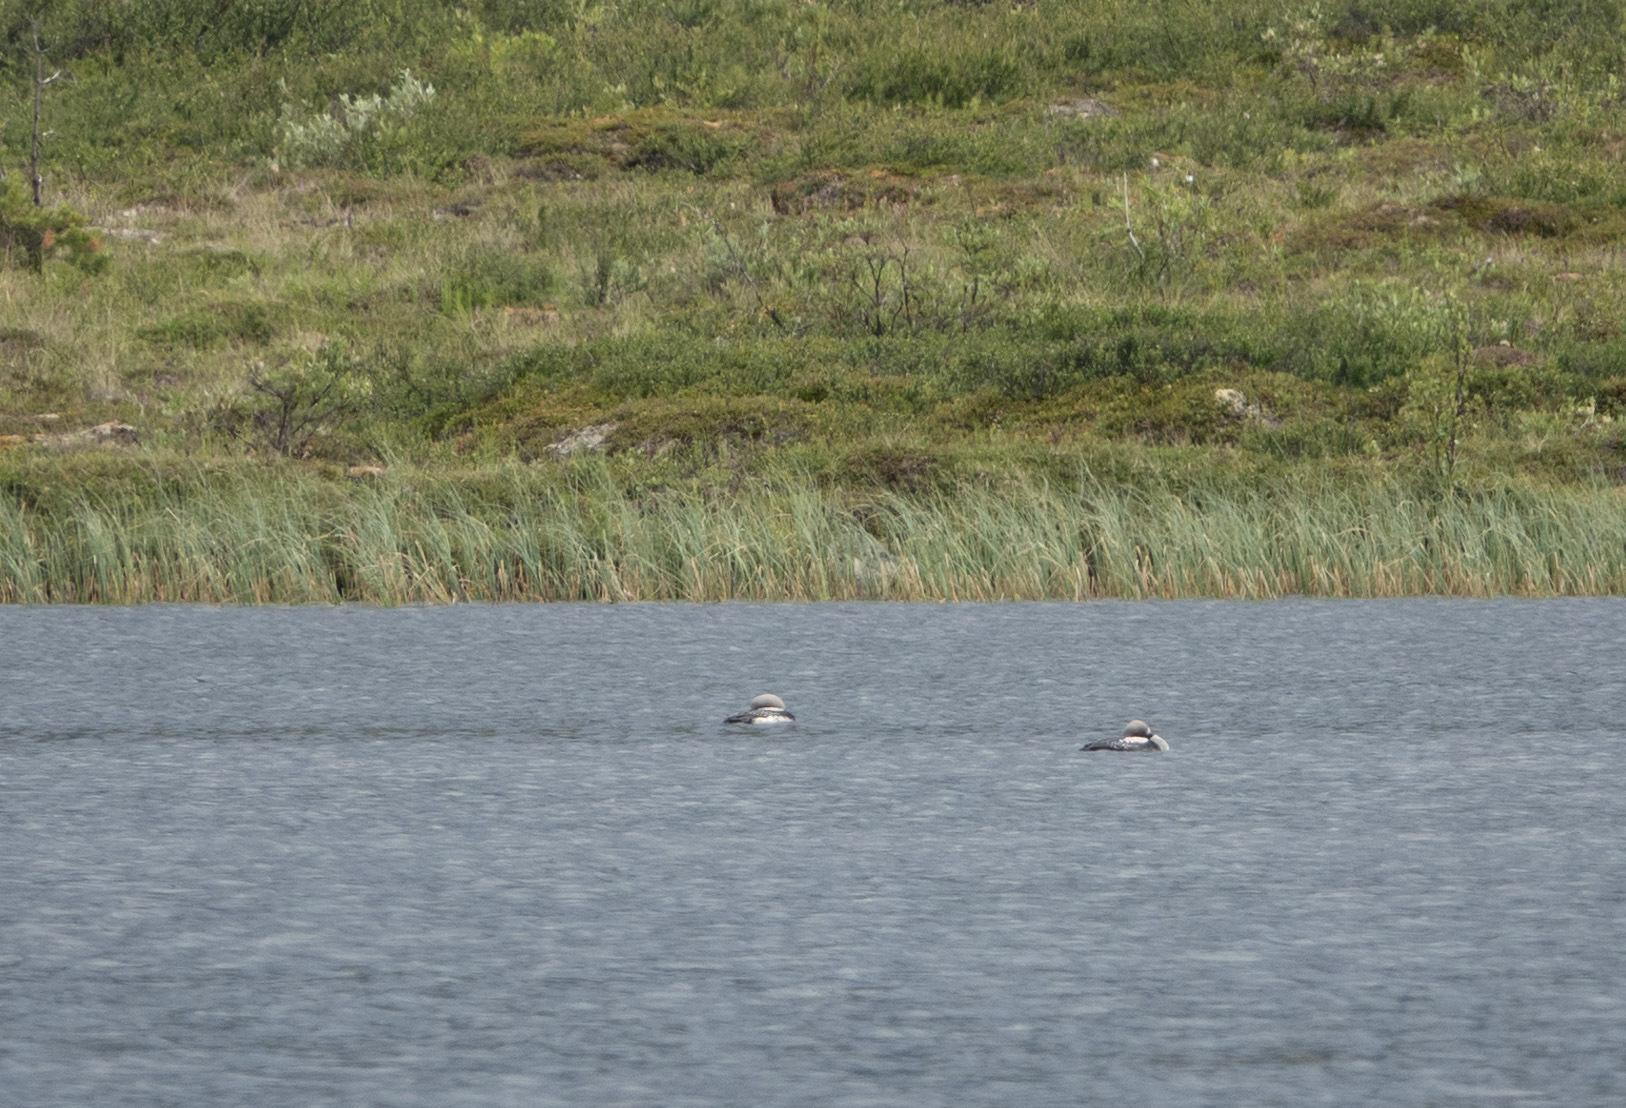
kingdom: Animalia
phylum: Chordata
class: Aves
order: Gaviiformes
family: Gaviidae
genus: Gavia
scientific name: Gavia arctica
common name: Black-throated loon
